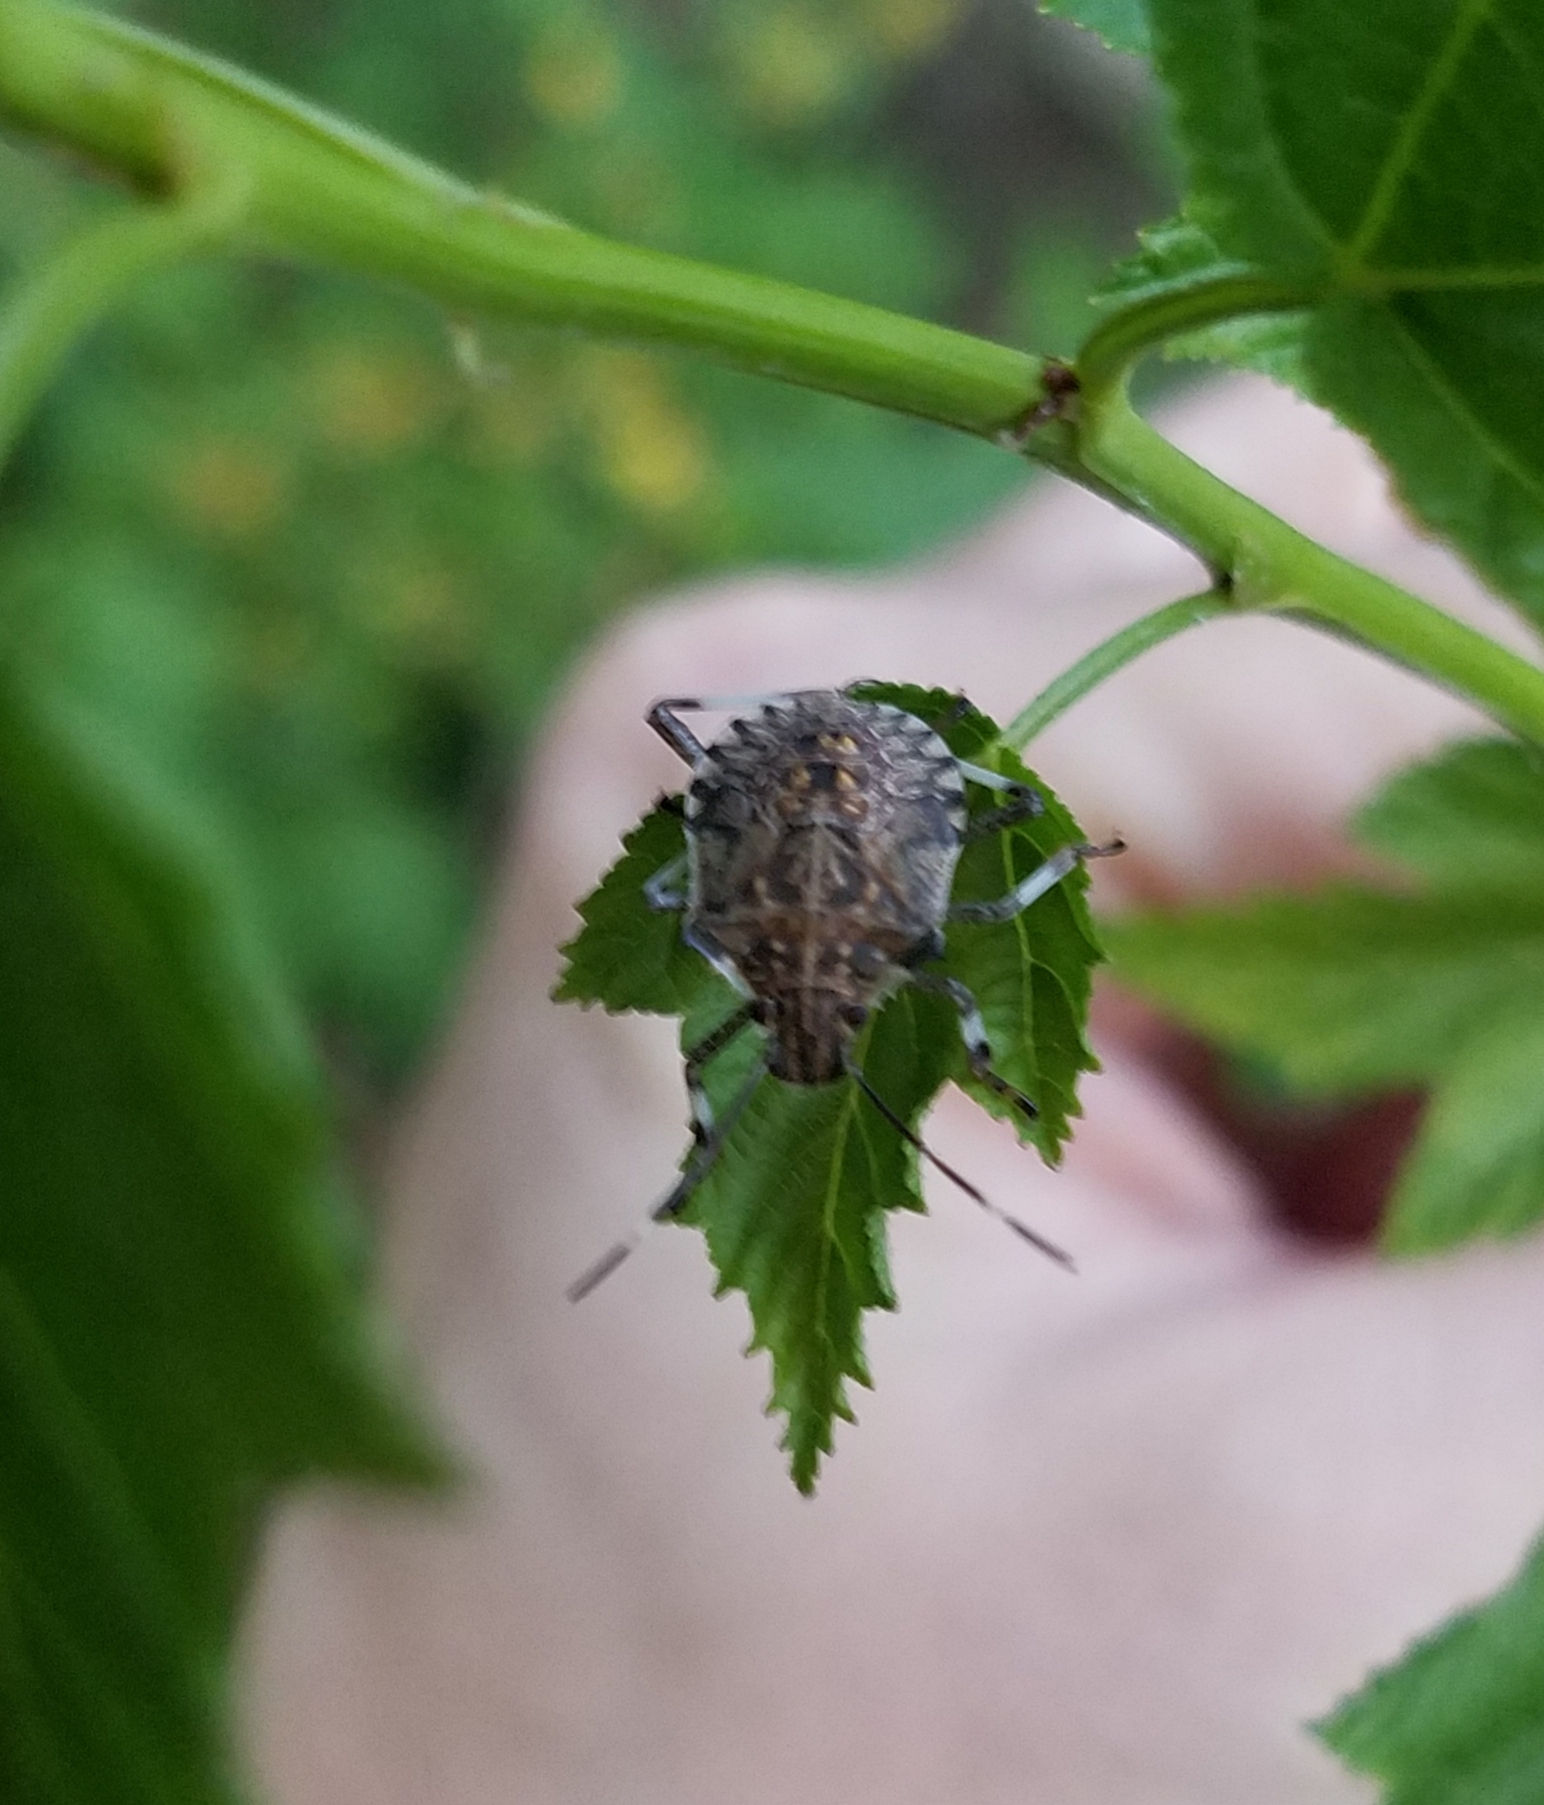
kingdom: Animalia
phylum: Arthropoda
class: Insecta
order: Hemiptera
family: Pentatomidae
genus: Halyomorpha
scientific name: Halyomorpha halys
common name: Brown marmorated stink bug
